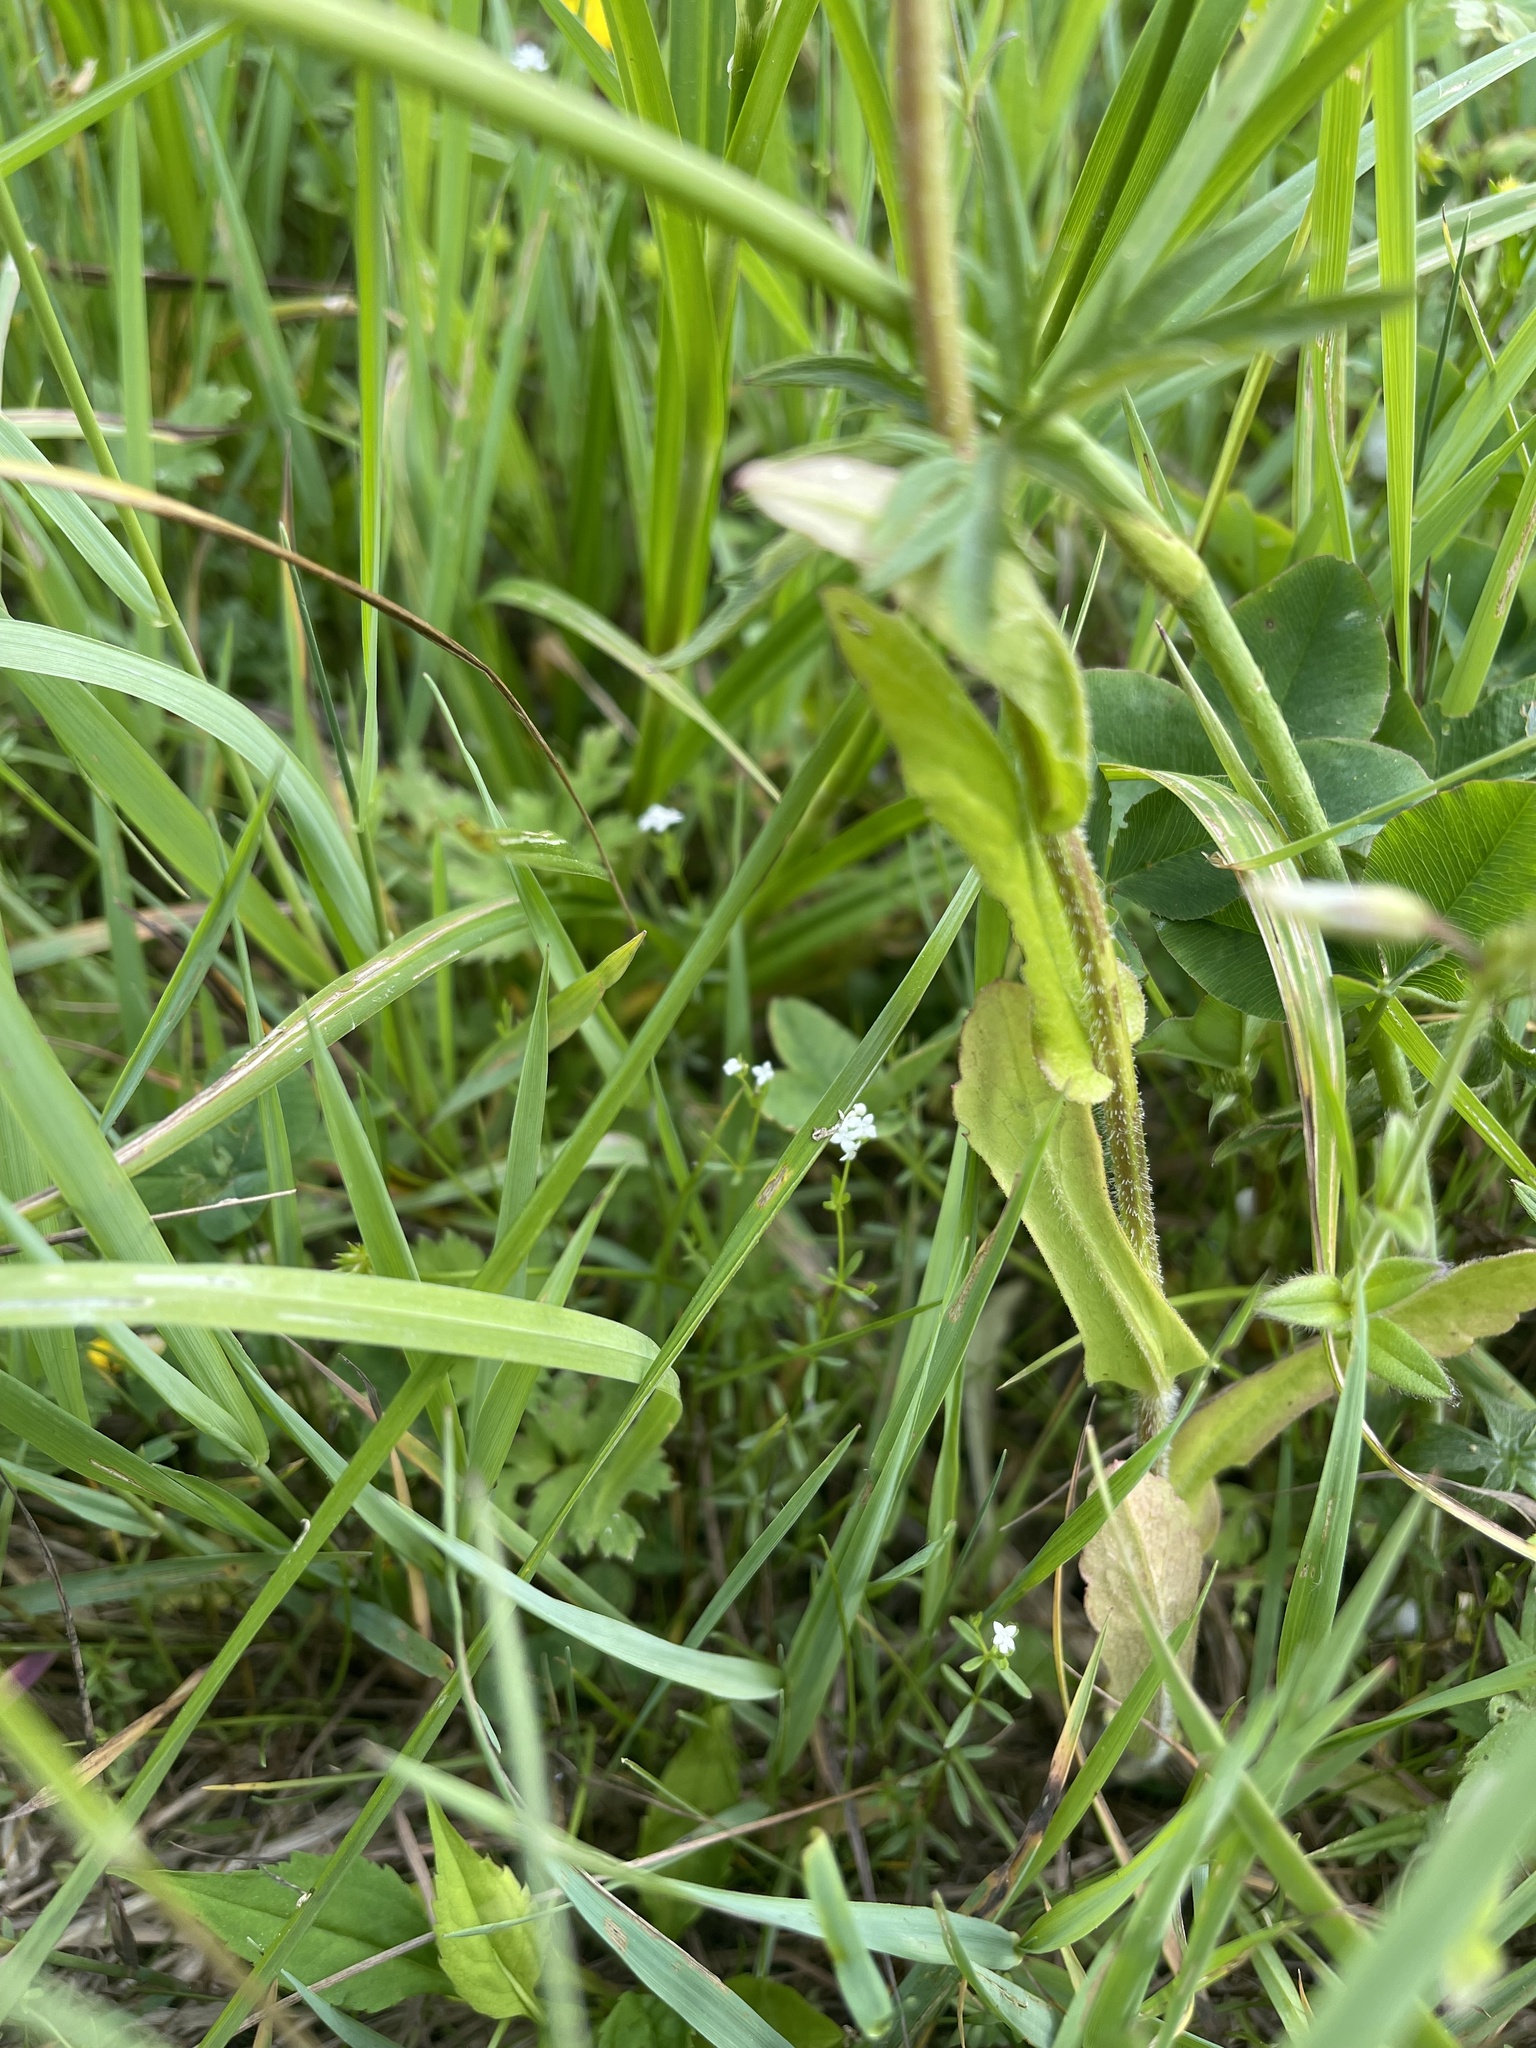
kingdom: Plantae
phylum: Tracheophyta
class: Magnoliopsida
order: Asterales
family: Asteraceae
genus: Erigeron
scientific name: Erigeron philadelphicus
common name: Robin's-plantain
